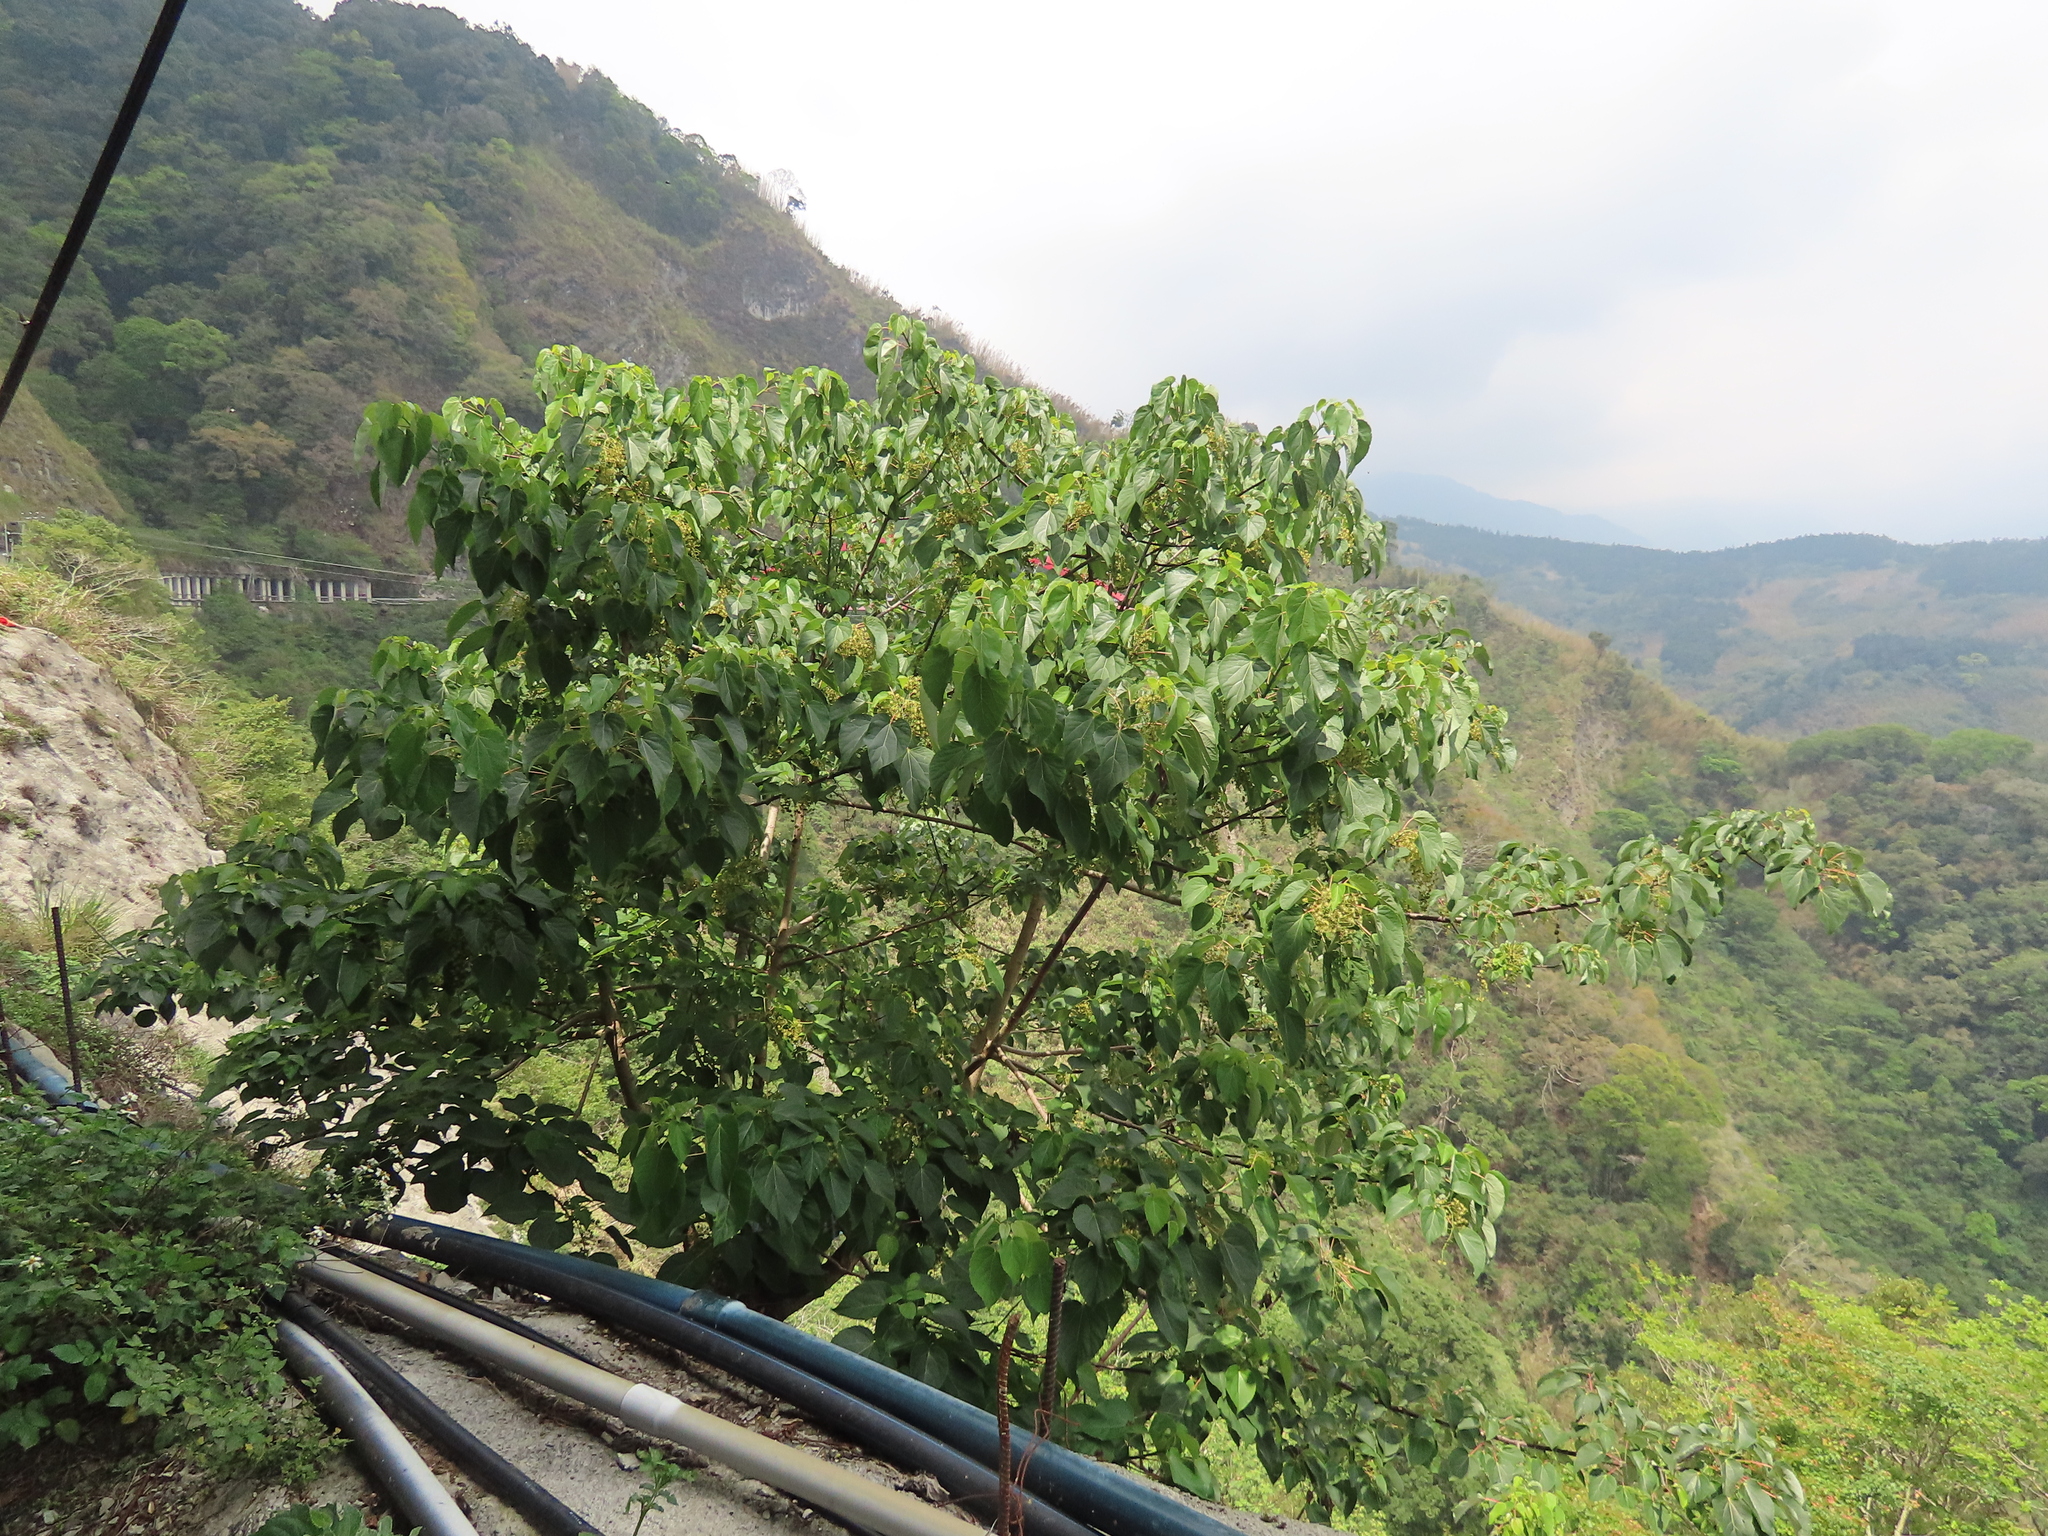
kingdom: Plantae
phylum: Tracheophyta
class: Magnoliopsida
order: Malpighiales
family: Salicaceae
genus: Idesia
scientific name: Idesia polycarpa
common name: Idesia tree
